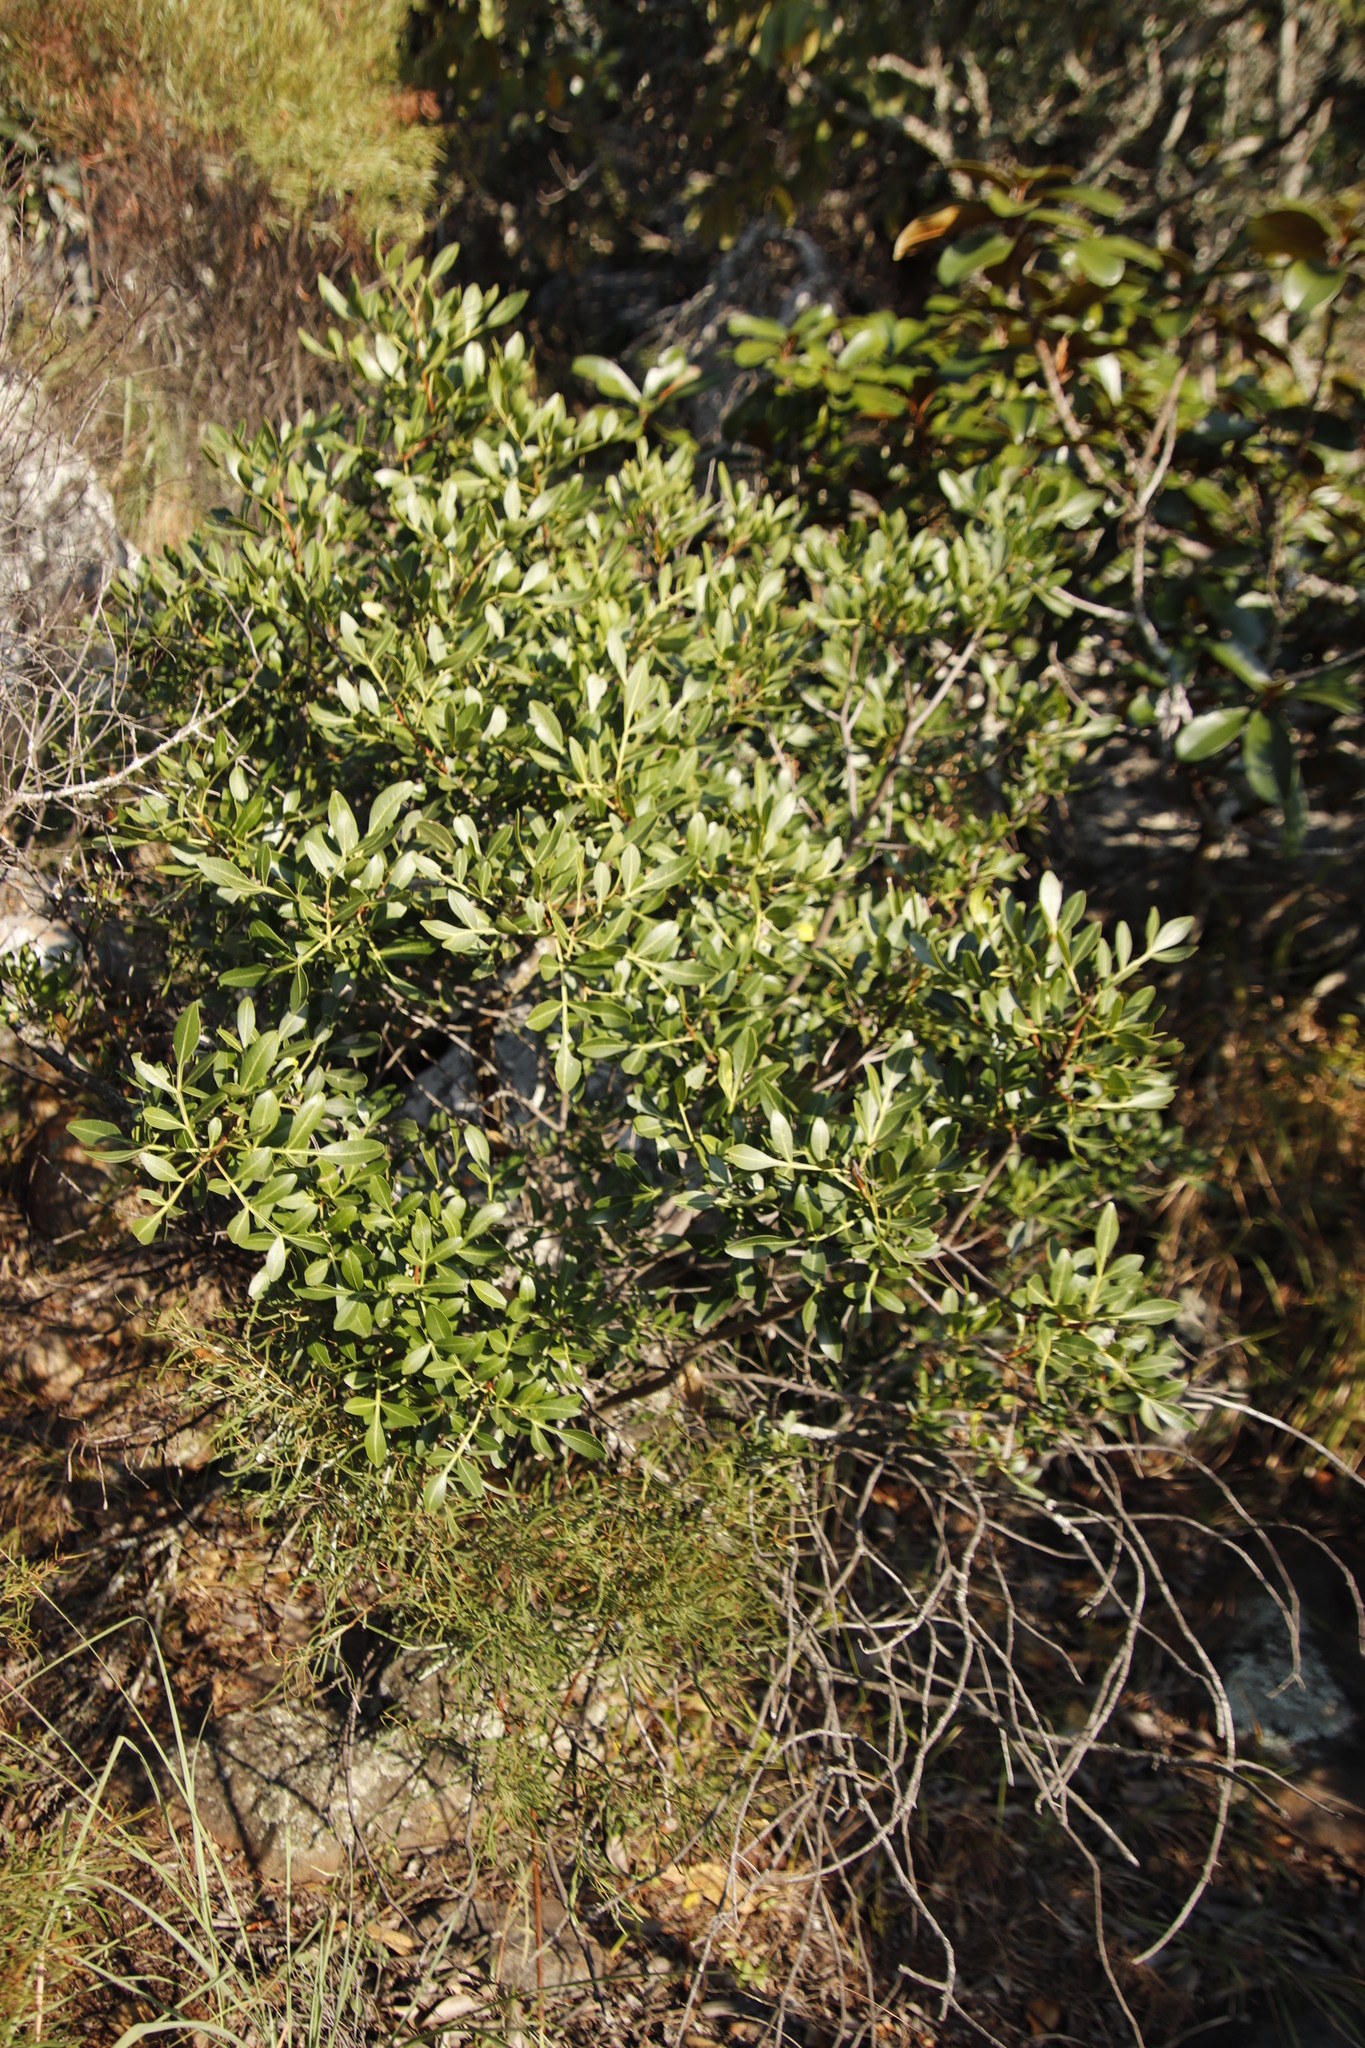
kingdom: Plantae
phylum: Tracheophyta
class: Magnoliopsida
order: Sapindales
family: Meliaceae
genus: Ekebergia
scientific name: Ekebergia pterophylla
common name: Cape ash
